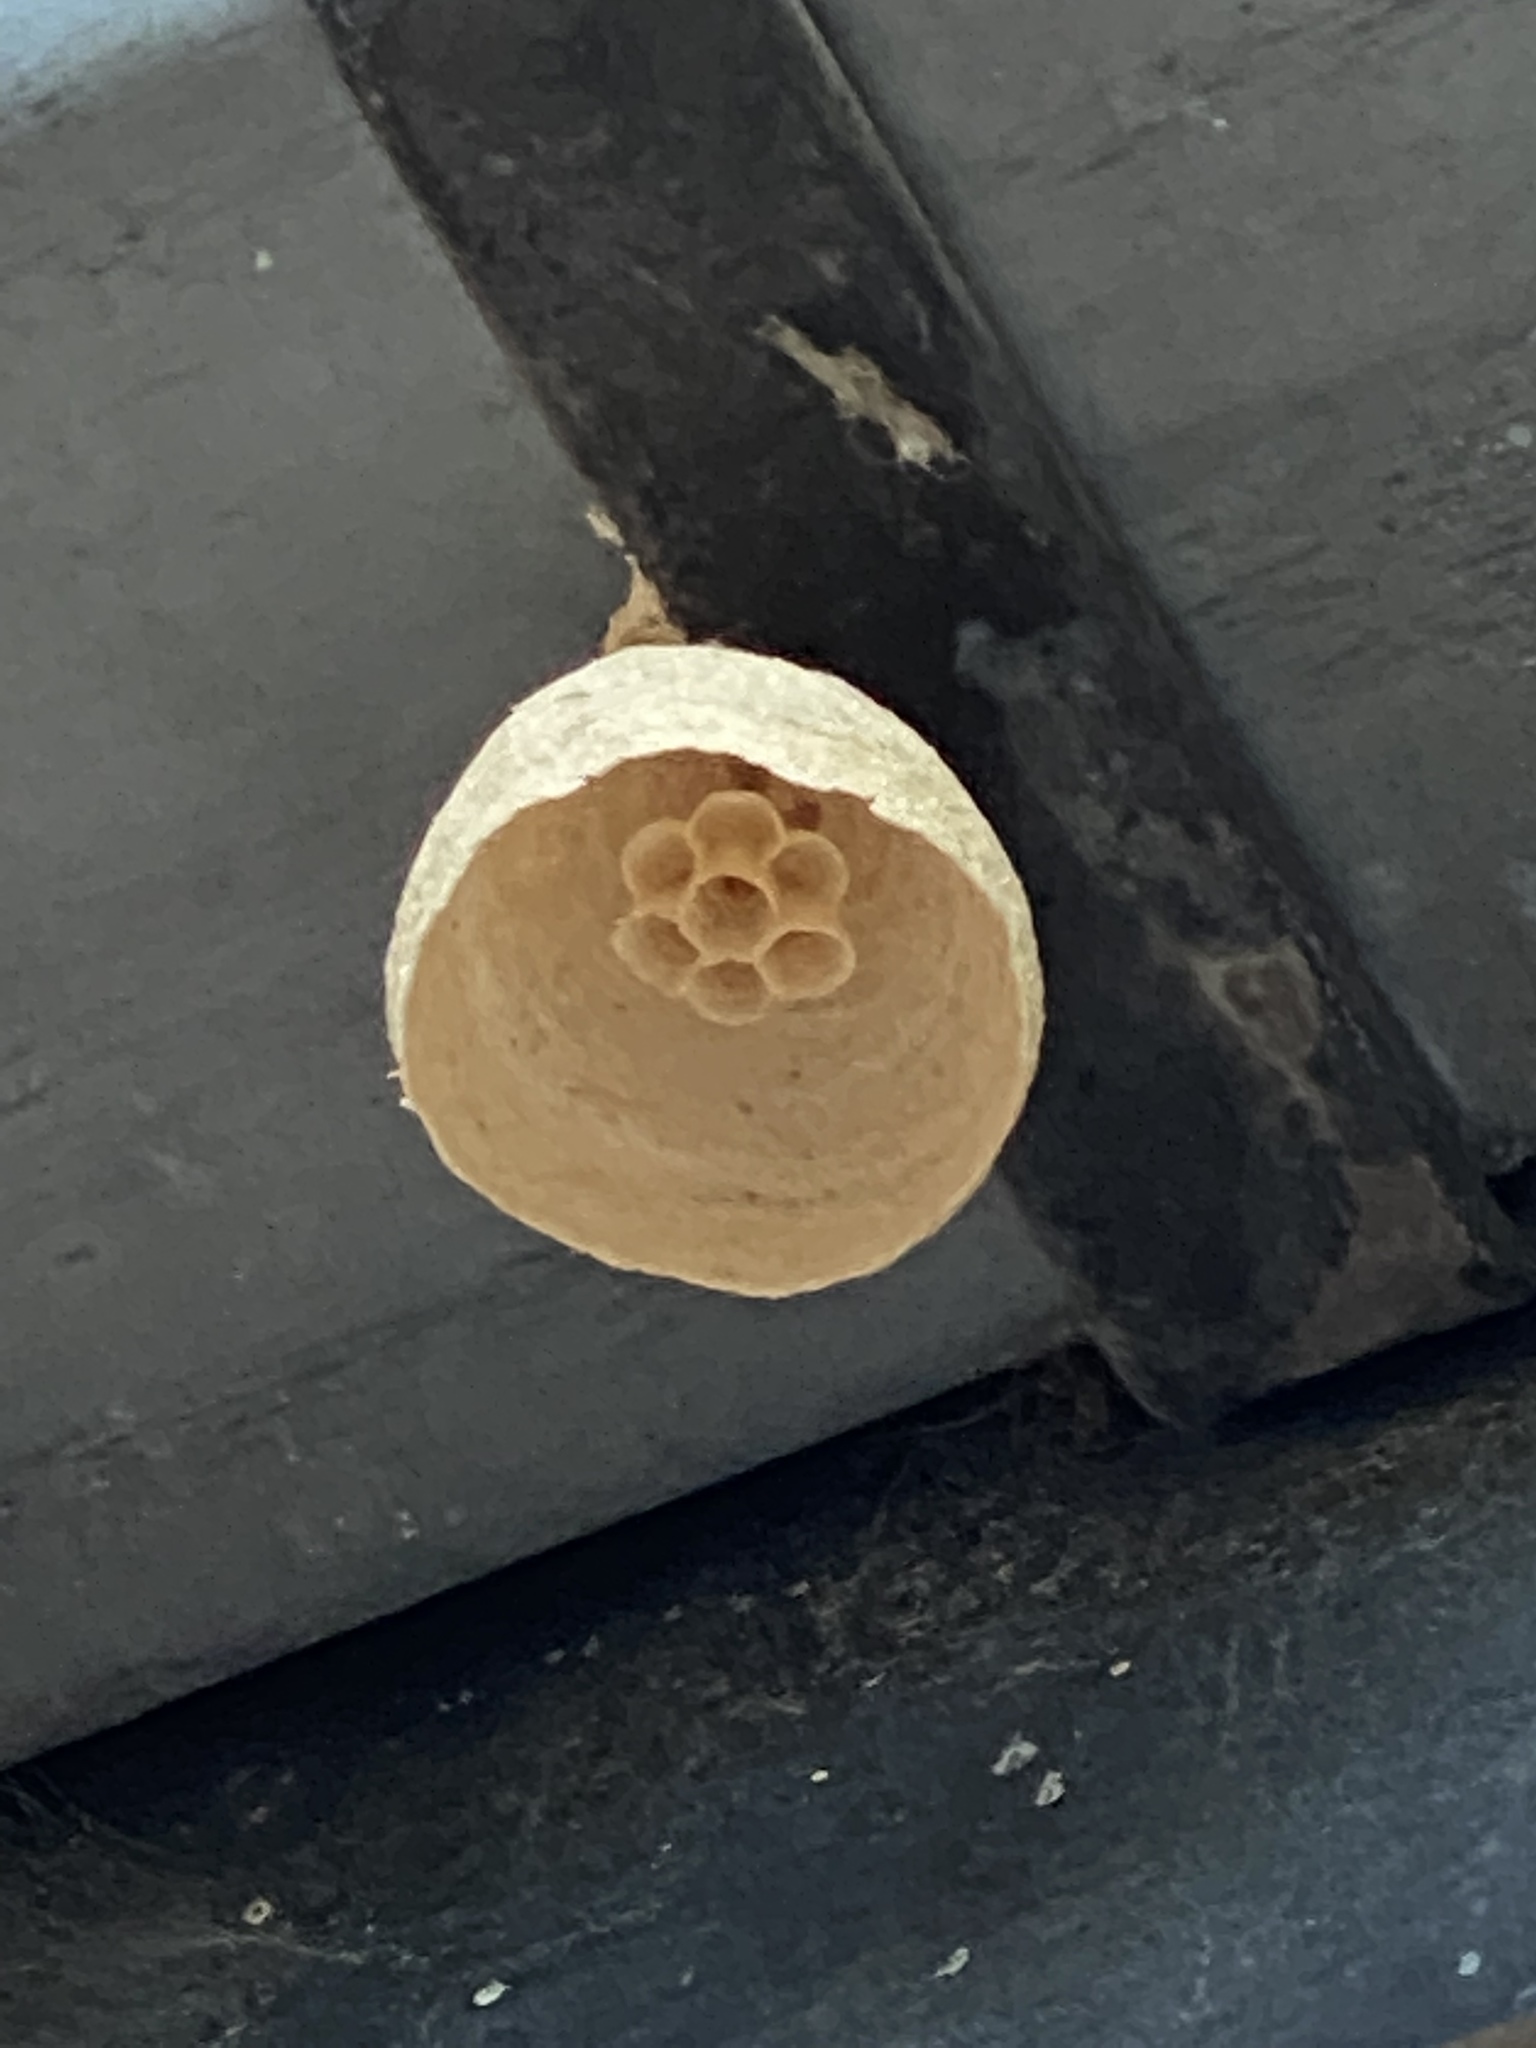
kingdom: Animalia
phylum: Arthropoda
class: Insecta
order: Hymenoptera
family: Vespidae
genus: Vespa
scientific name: Vespa velutina
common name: Asian hornet
